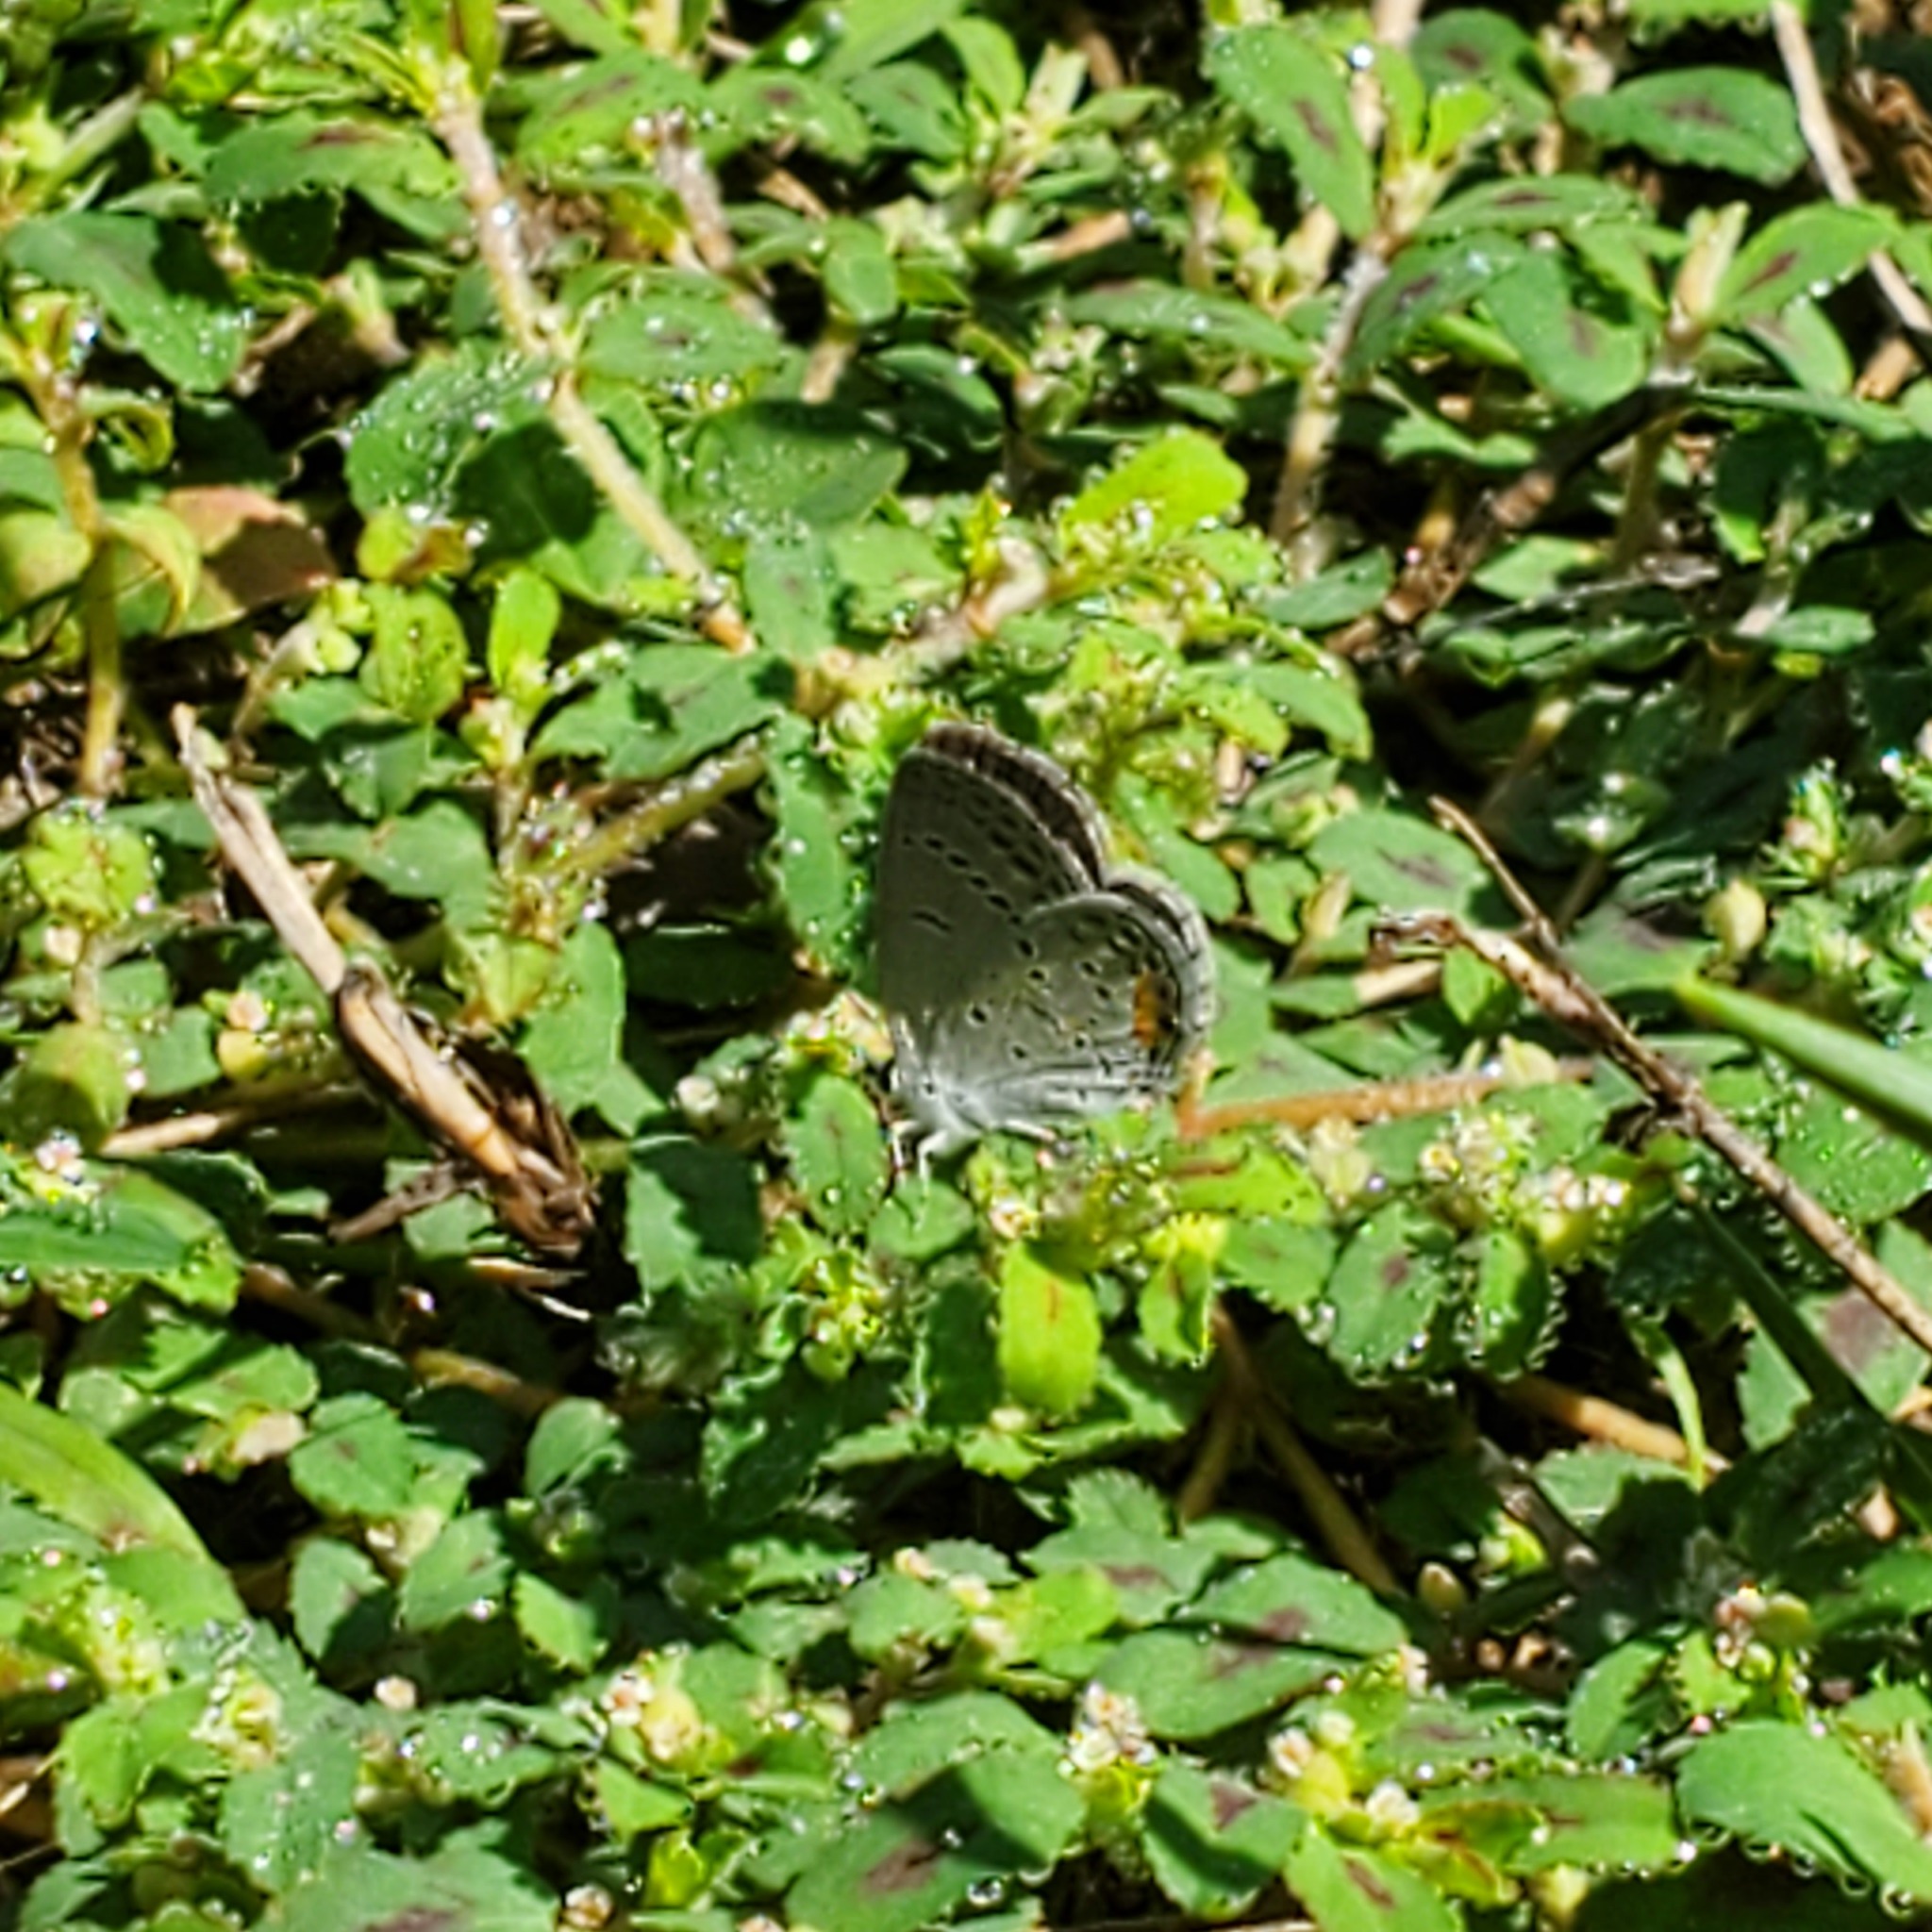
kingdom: Animalia
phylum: Arthropoda
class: Insecta
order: Lepidoptera
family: Lycaenidae
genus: Elkalyce
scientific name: Elkalyce comyntas
